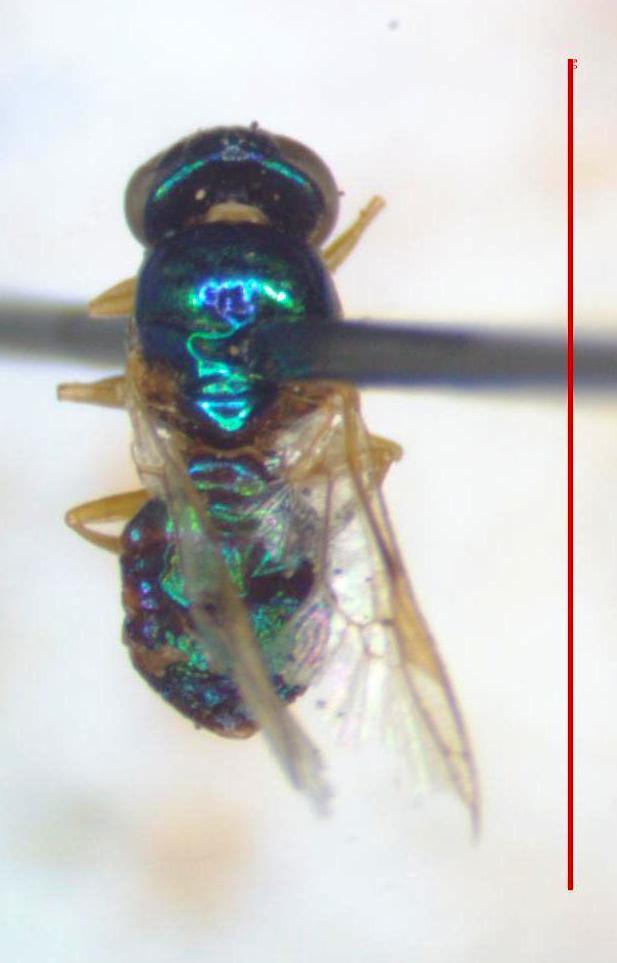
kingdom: Animalia
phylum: Arthropoda
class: Insecta
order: Diptera
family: Stratiomyidae
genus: Microchrysa
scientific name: Microchrysa bicolor
